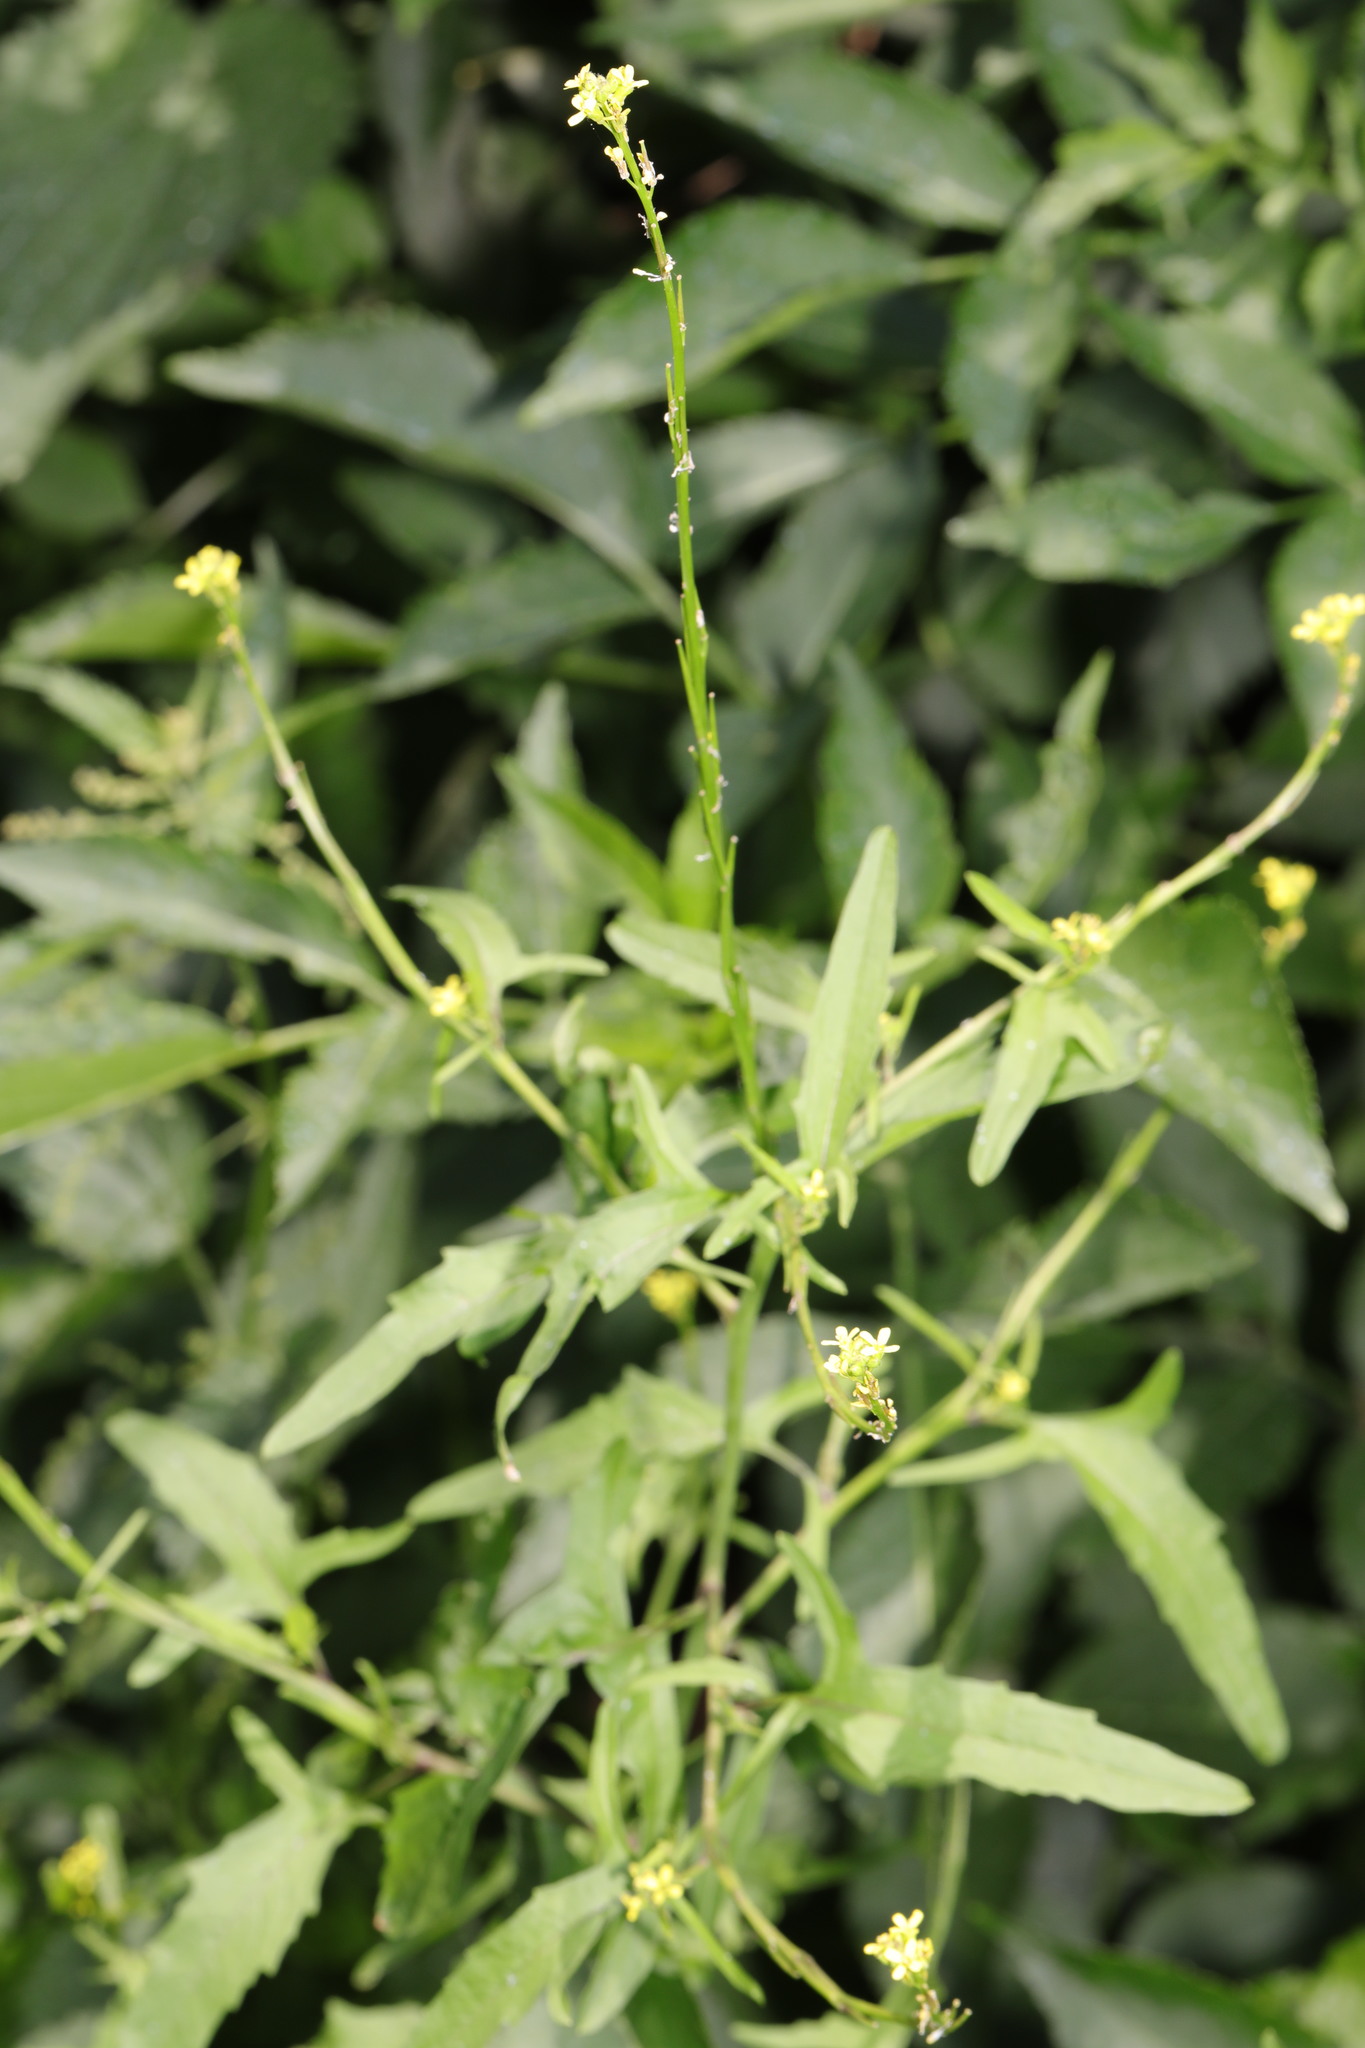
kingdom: Plantae
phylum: Tracheophyta
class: Magnoliopsida
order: Brassicales
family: Brassicaceae
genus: Sisymbrium
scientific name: Sisymbrium officinale
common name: Hedge mustard
